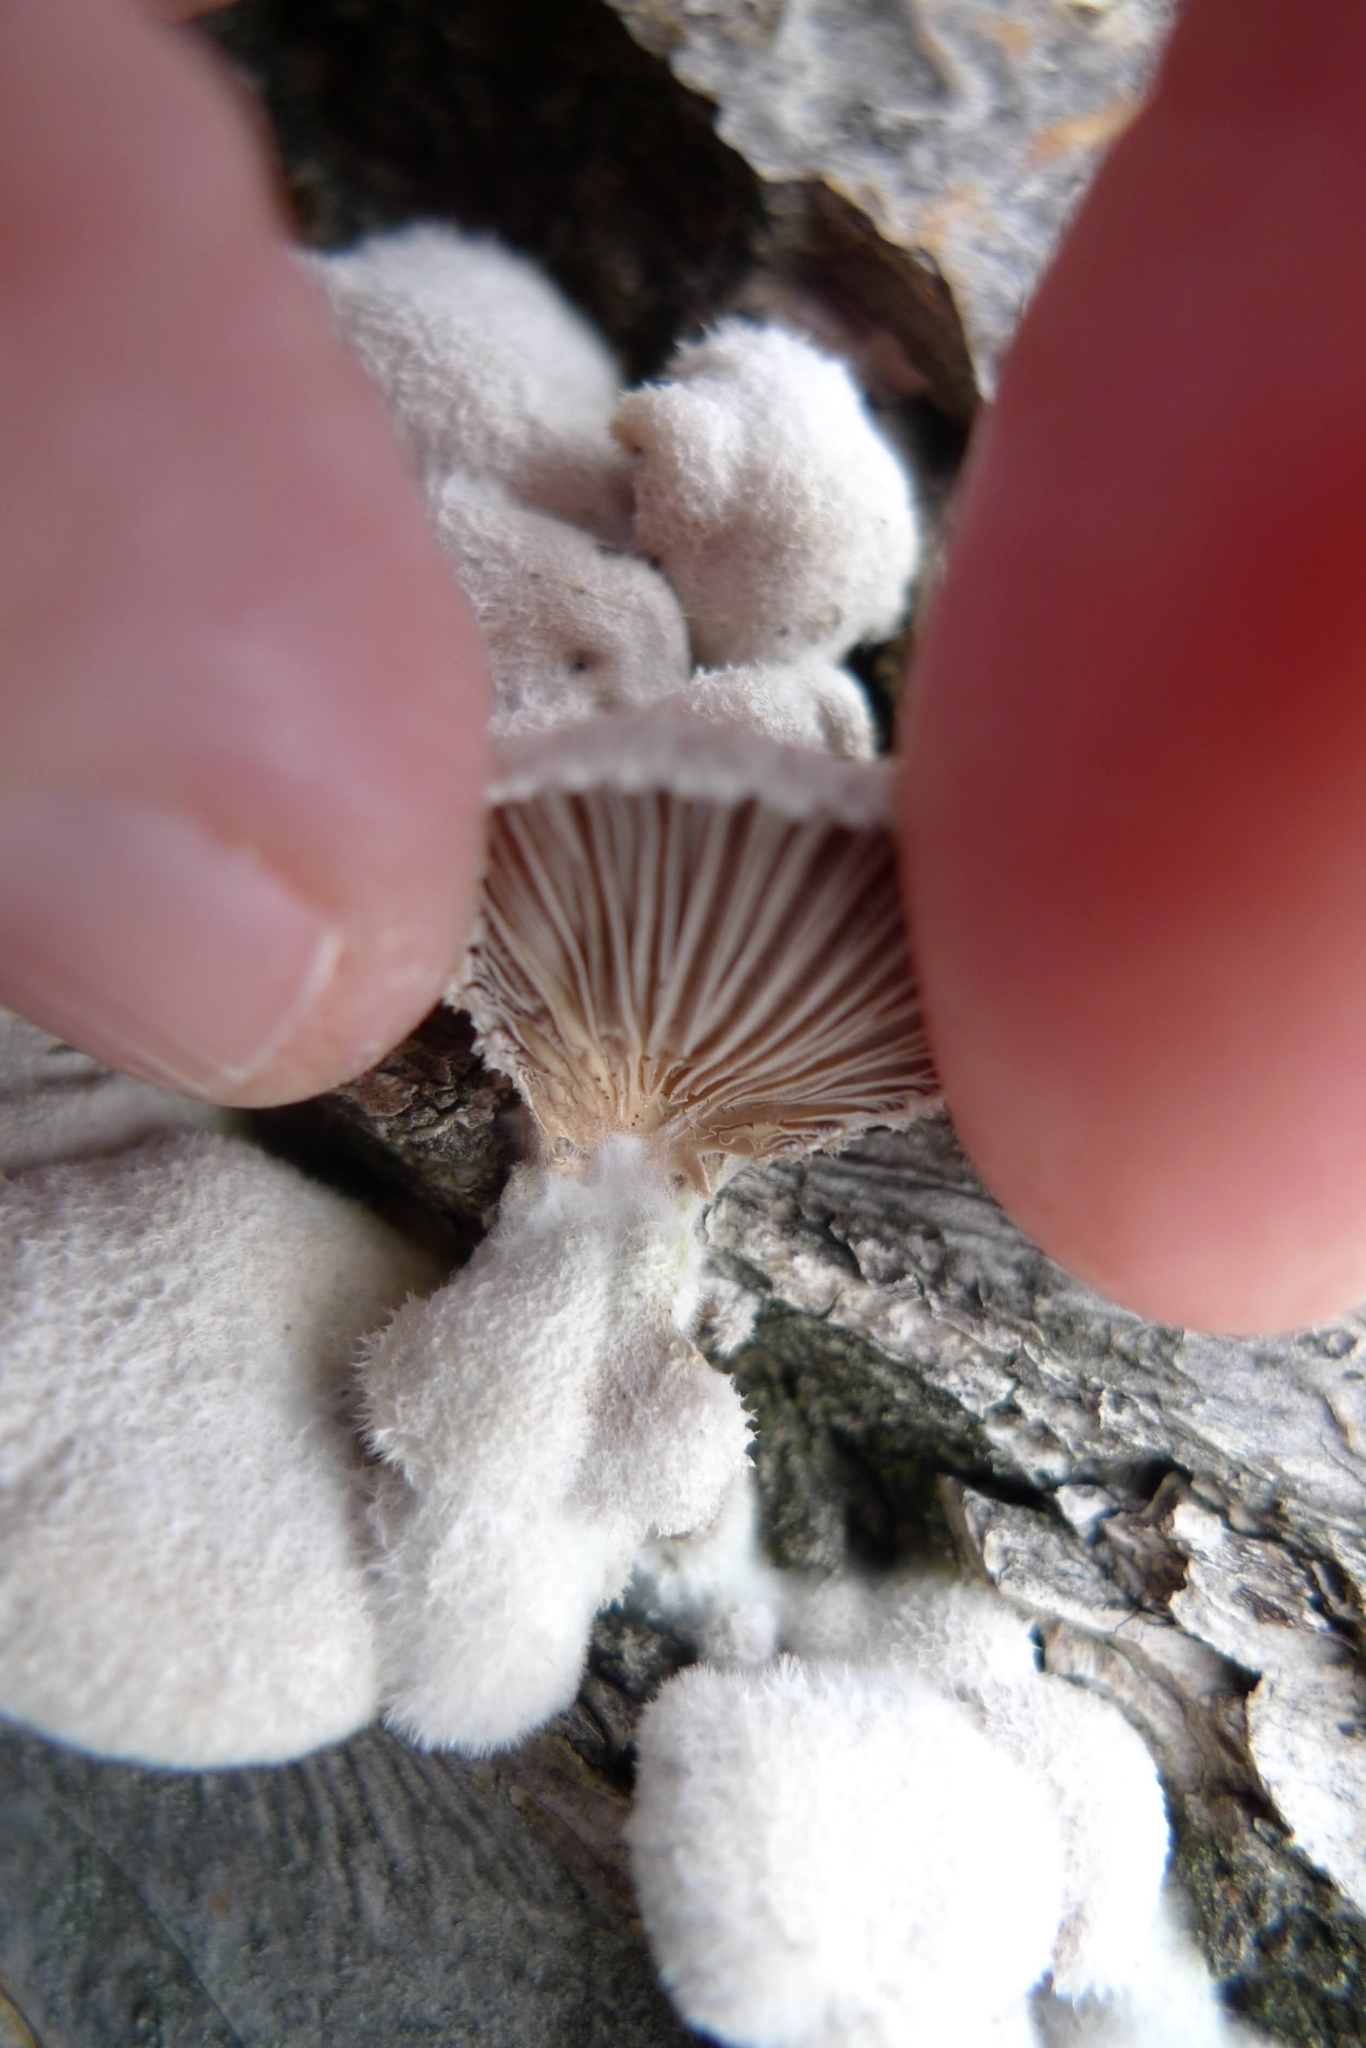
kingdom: Fungi
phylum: Basidiomycota
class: Agaricomycetes
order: Agaricales
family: Schizophyllaceae
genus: Schizophyllum
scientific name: Schizophyllum commune
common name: Common porecrust
